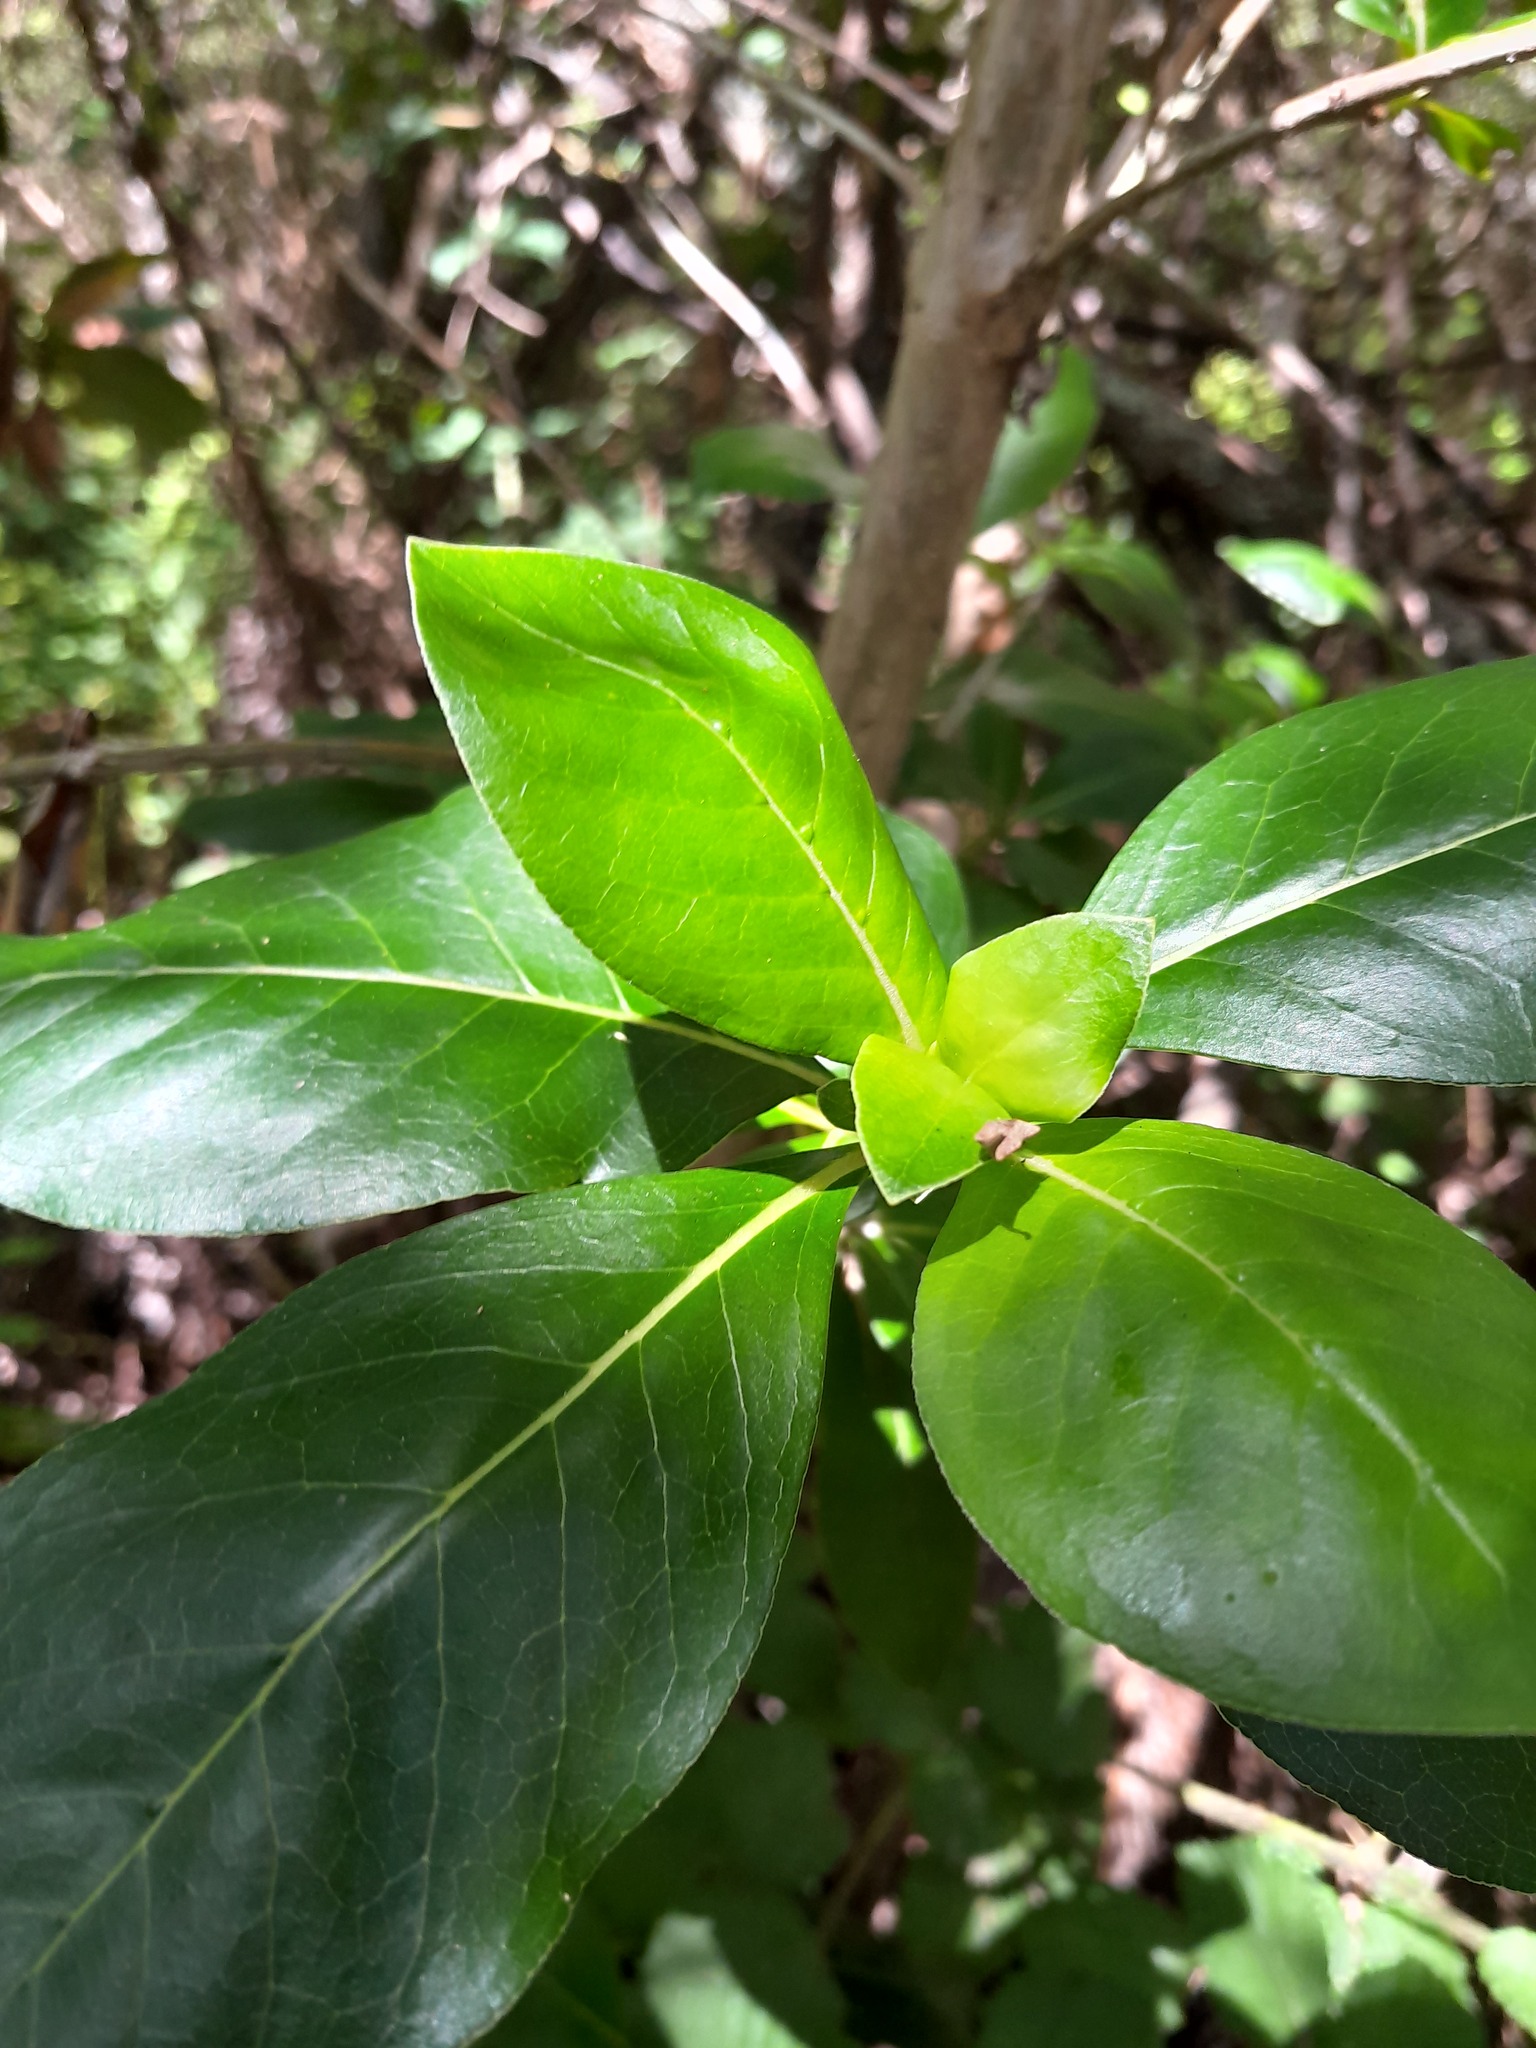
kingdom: Plantae
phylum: Tracheophyta
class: Magnoliopsida
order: Gentianales
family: Rubiaceae
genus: Coprosma
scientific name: Coprosma robusta
